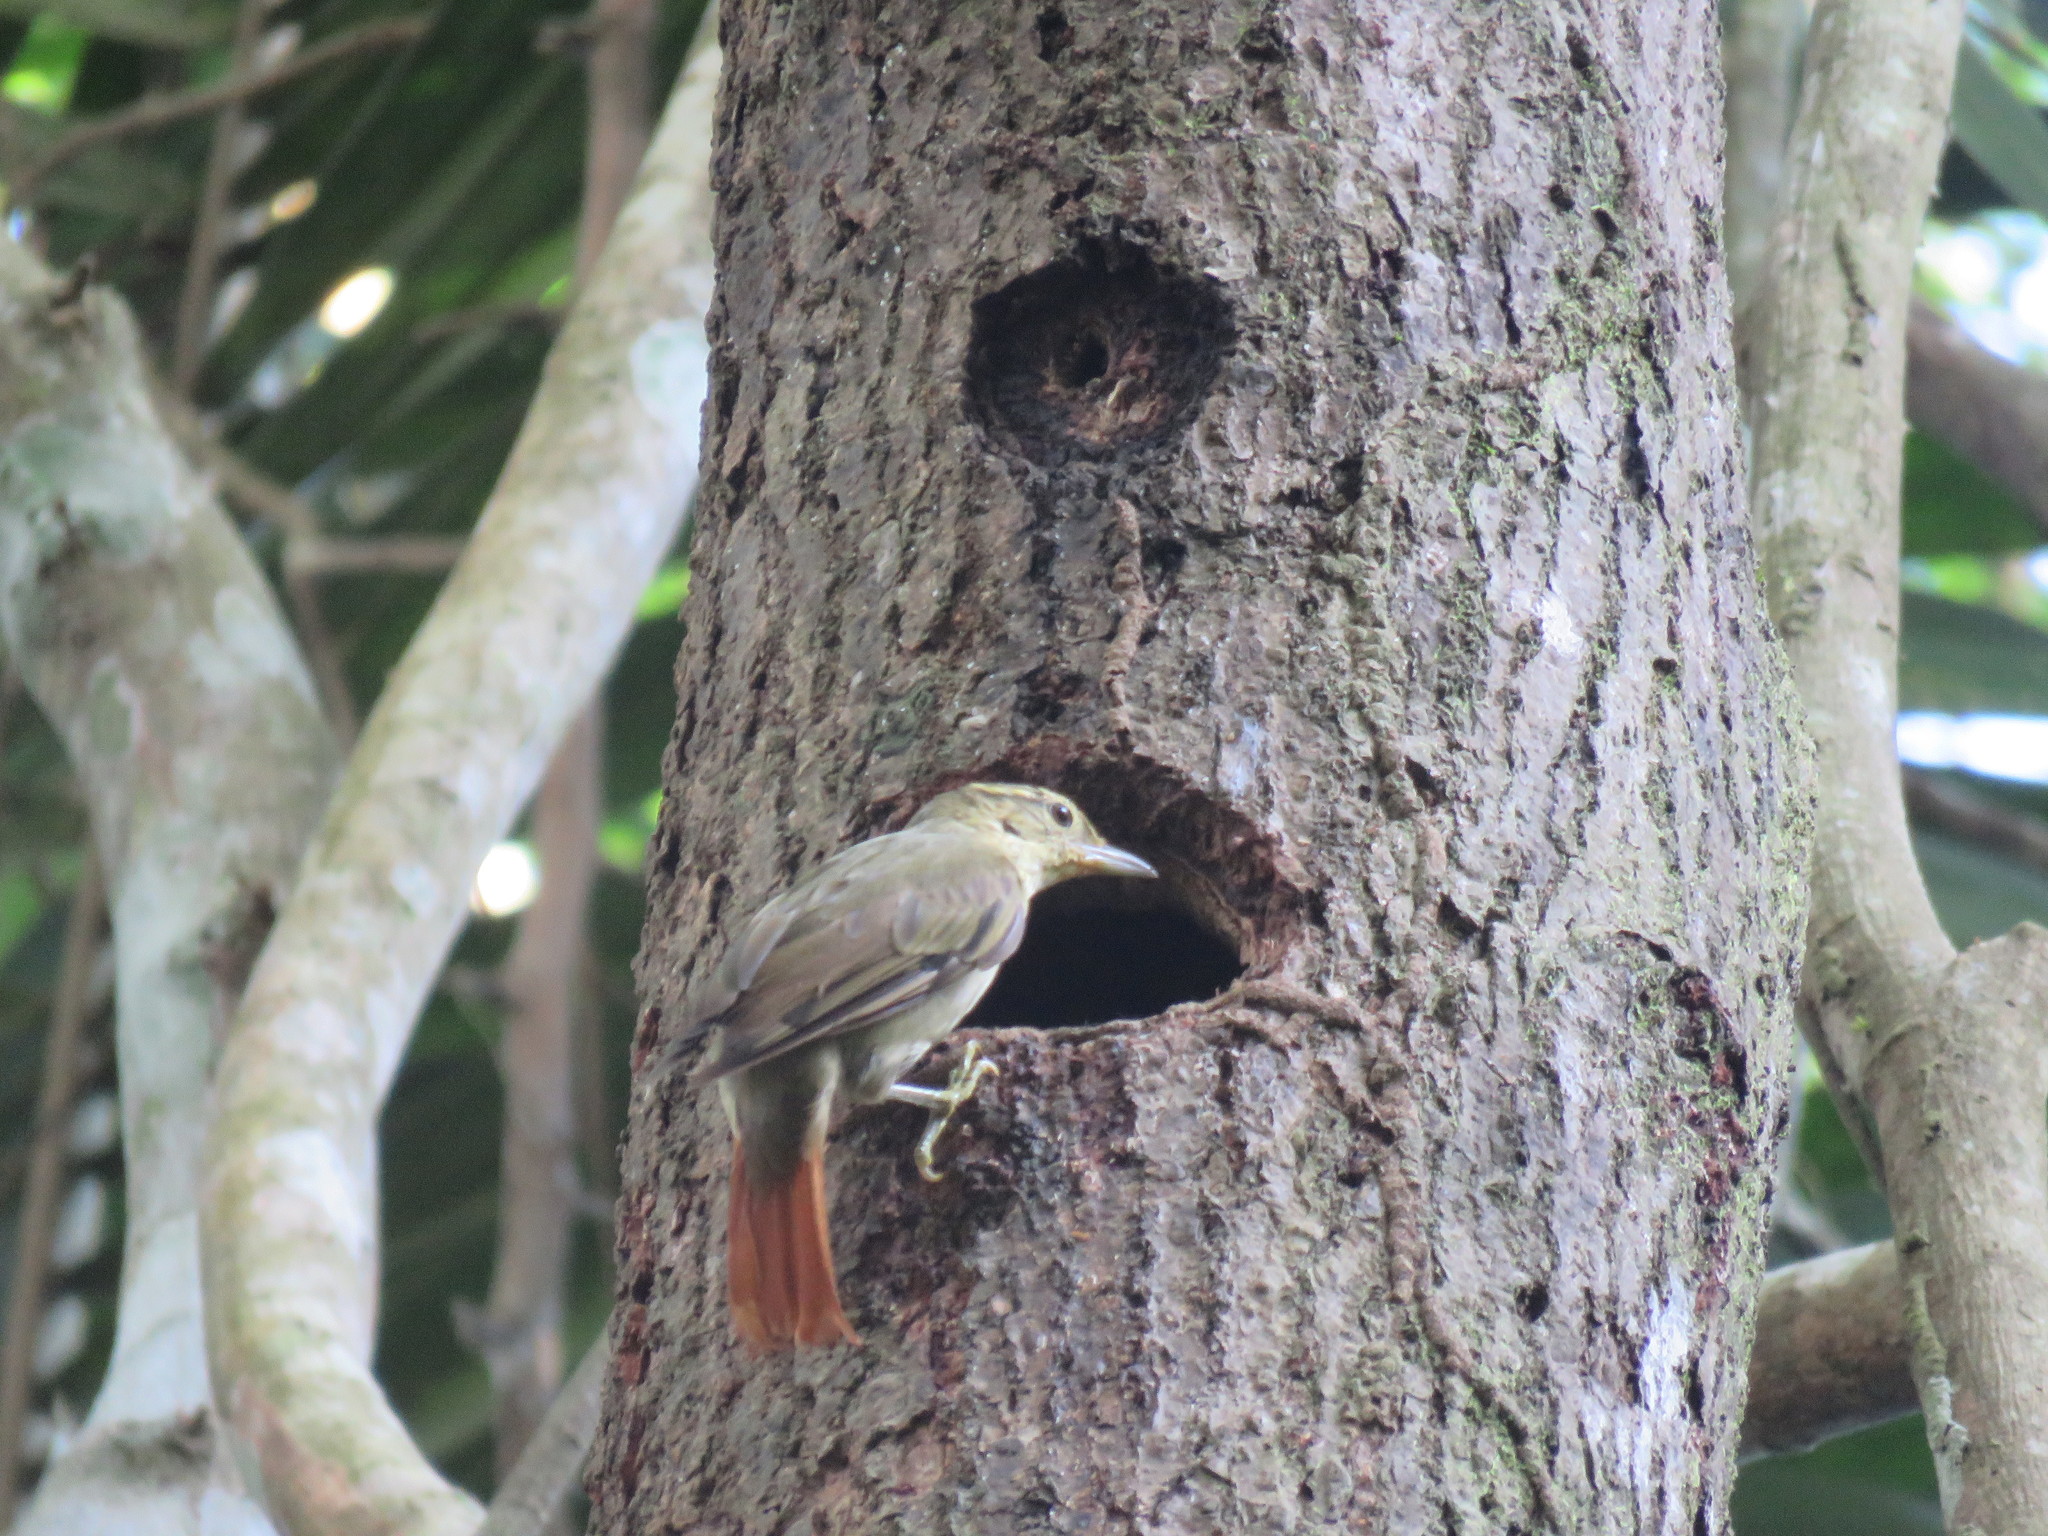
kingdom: Animalia
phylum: Chordata
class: Aves
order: Passeriformes
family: Furnariidae
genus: Philydor
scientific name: Philydor ruficaudatum
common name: Rufous-tailed foliage-gleaner
